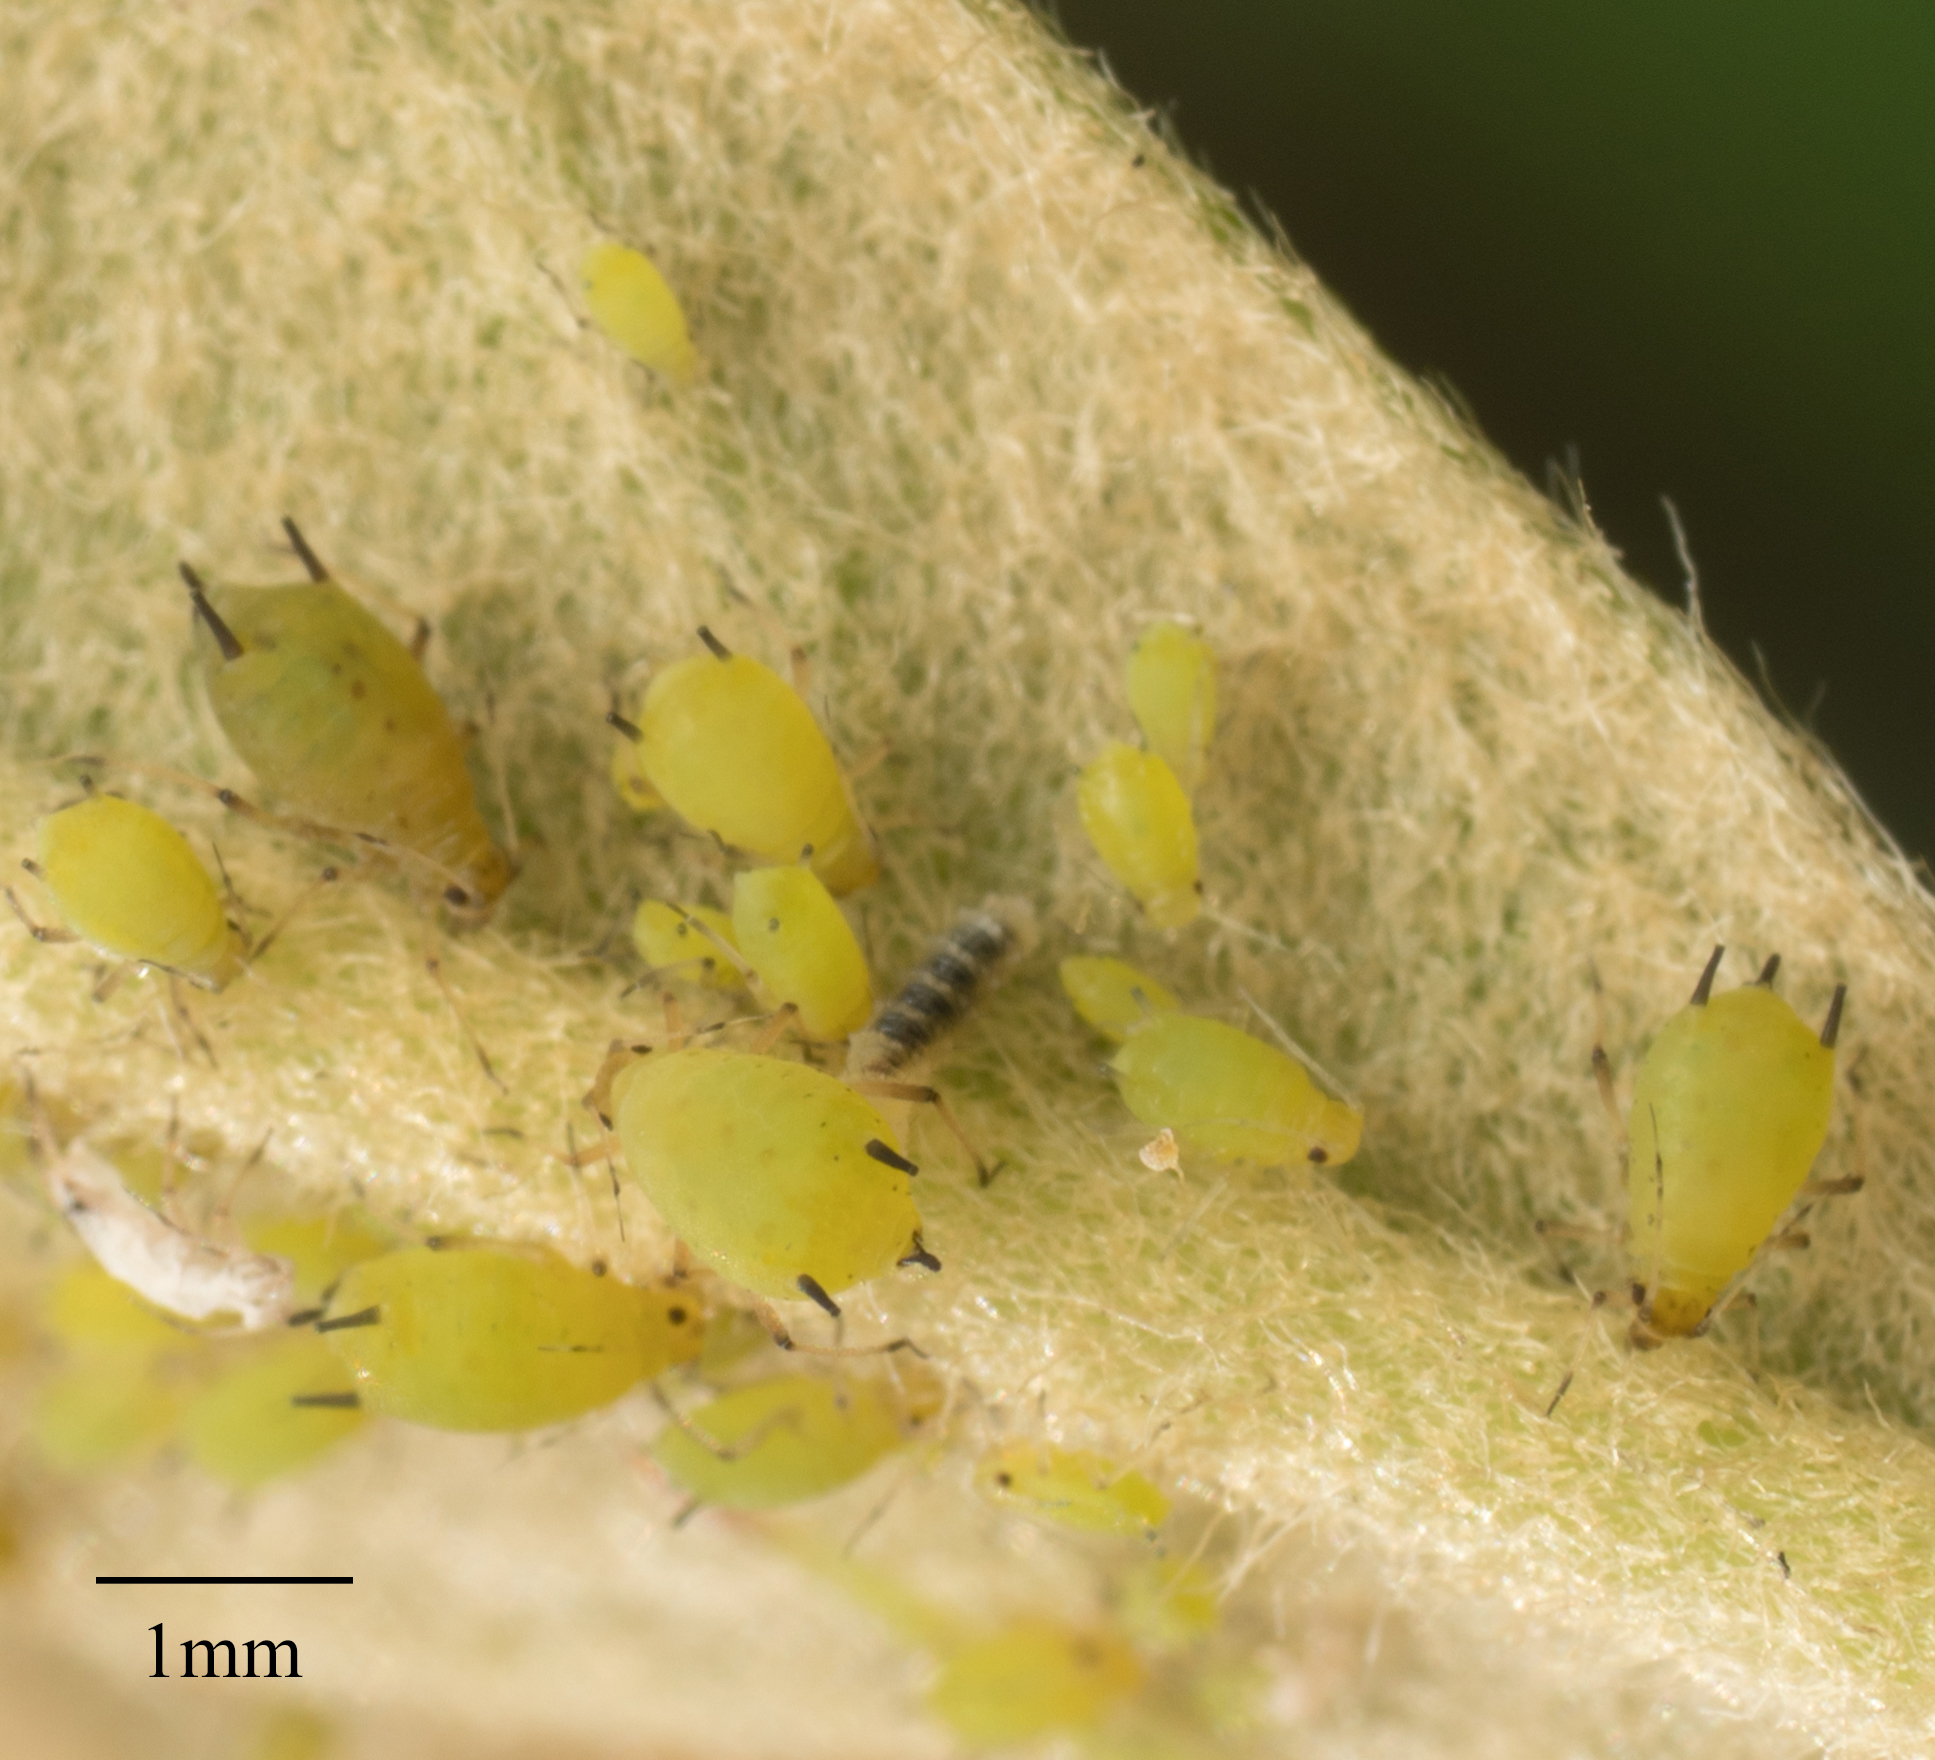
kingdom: Animalia
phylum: Arthropoda
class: Insecta
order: Hemiptera
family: Aphididae
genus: Aphis
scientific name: Aphis spiraecola
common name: Spirea aphid
